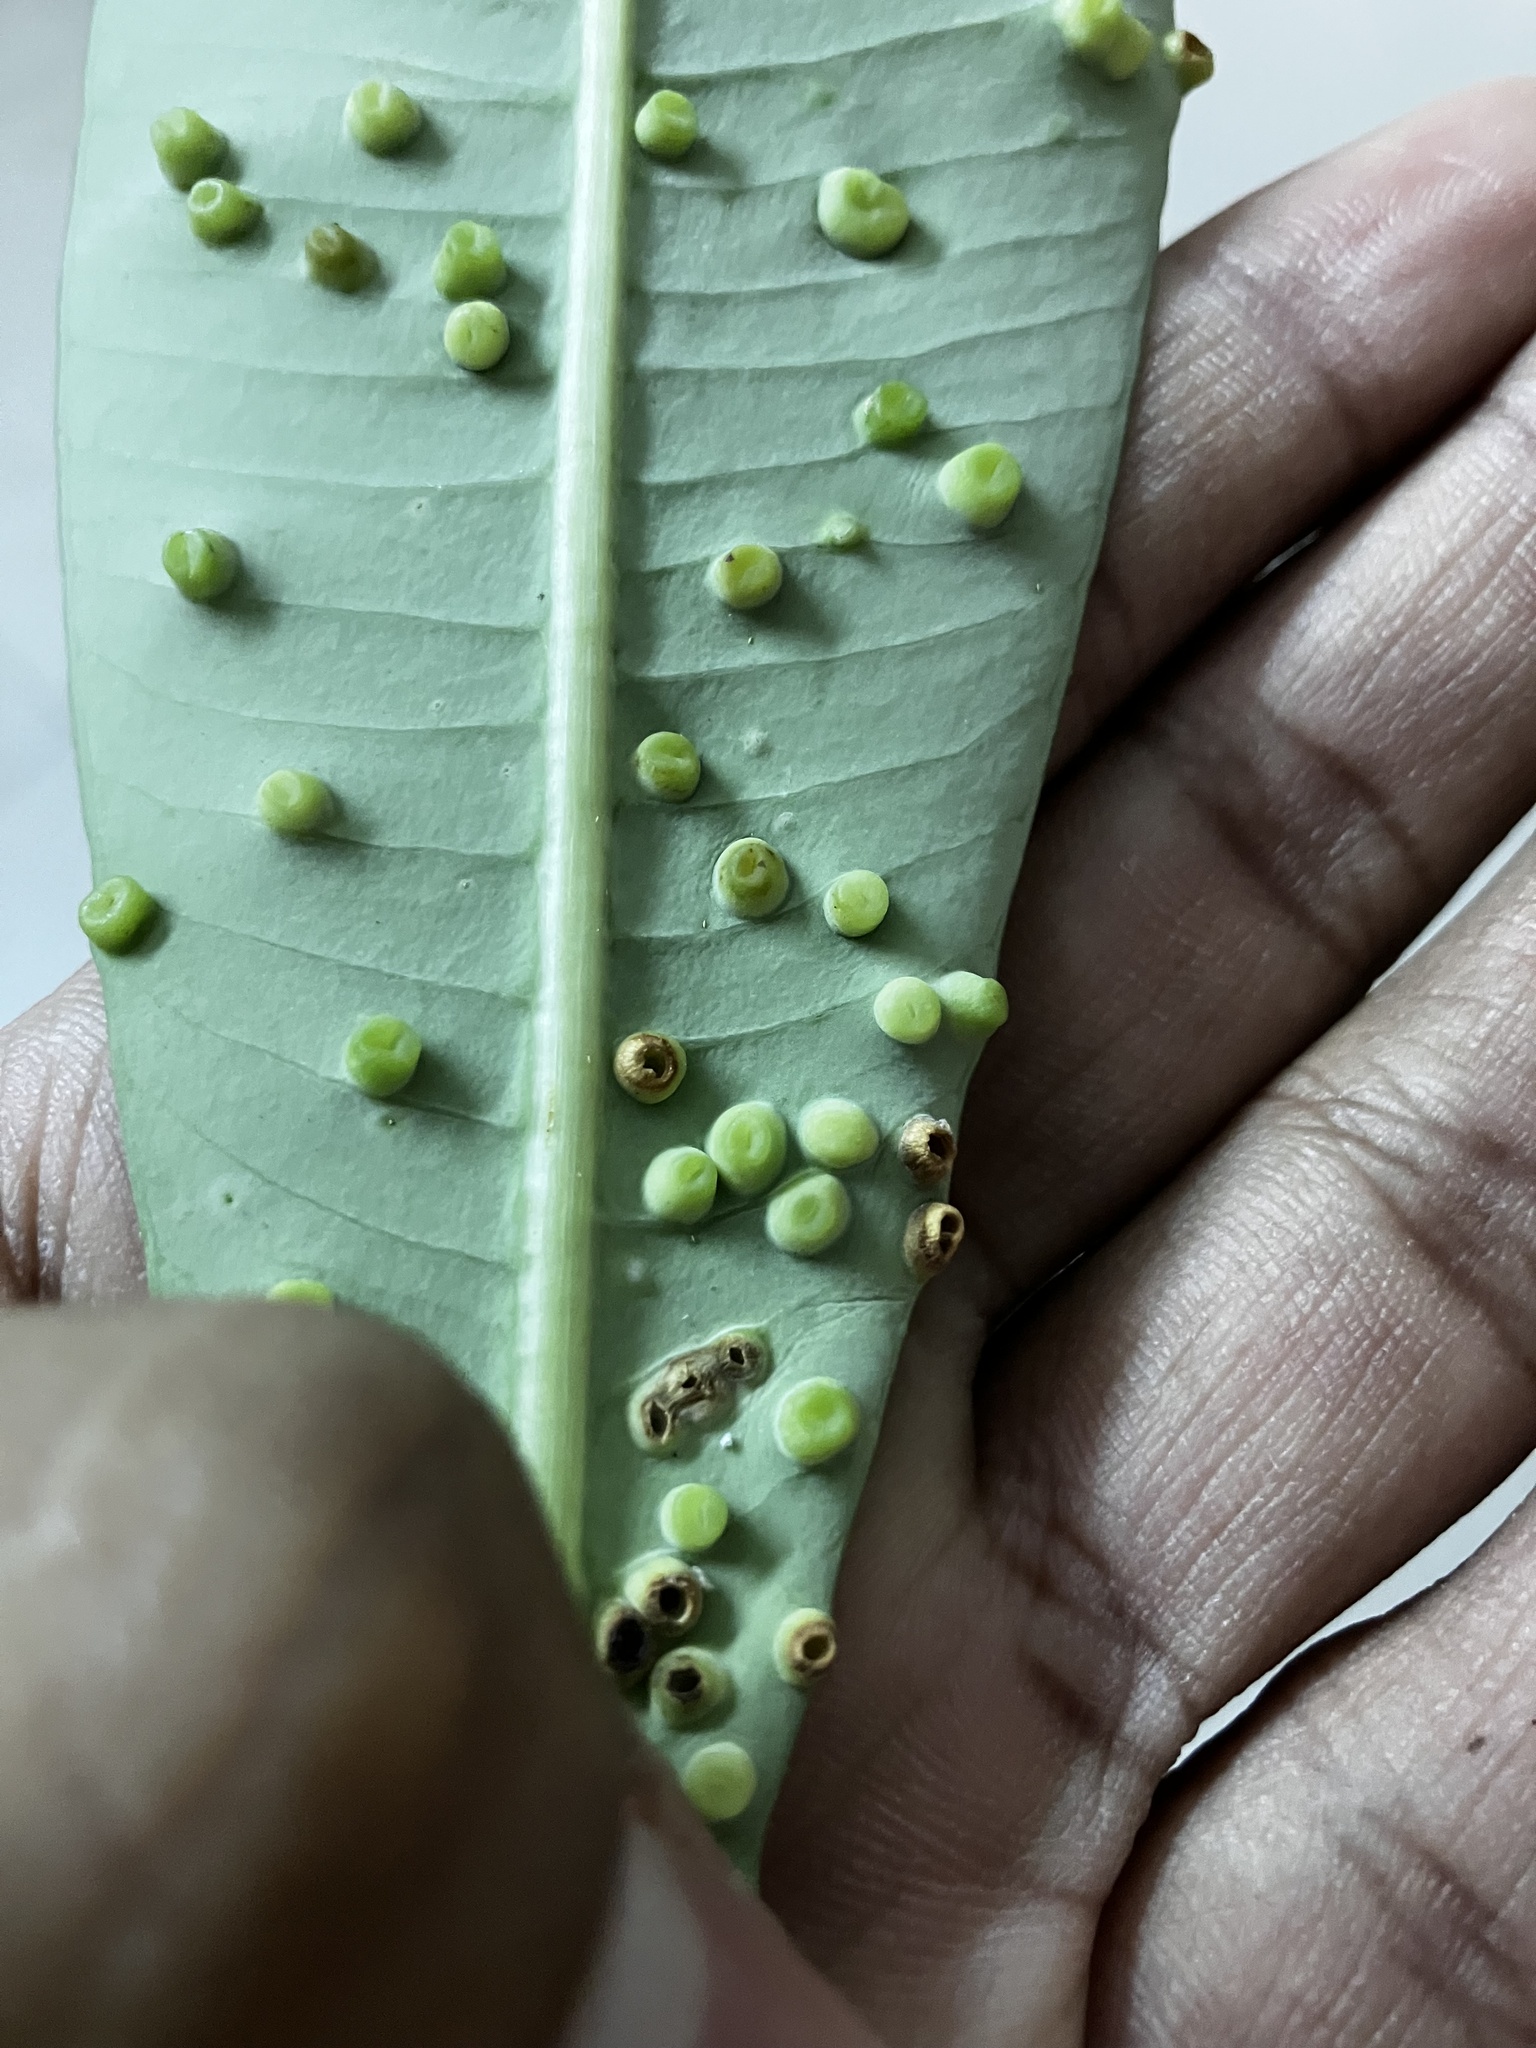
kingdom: Animalia
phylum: Arthropoda
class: Insecta
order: Hemiptera
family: Phacopteronidae
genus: Pseudophacopteron
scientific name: Pseudophacopteron tuberculatum
